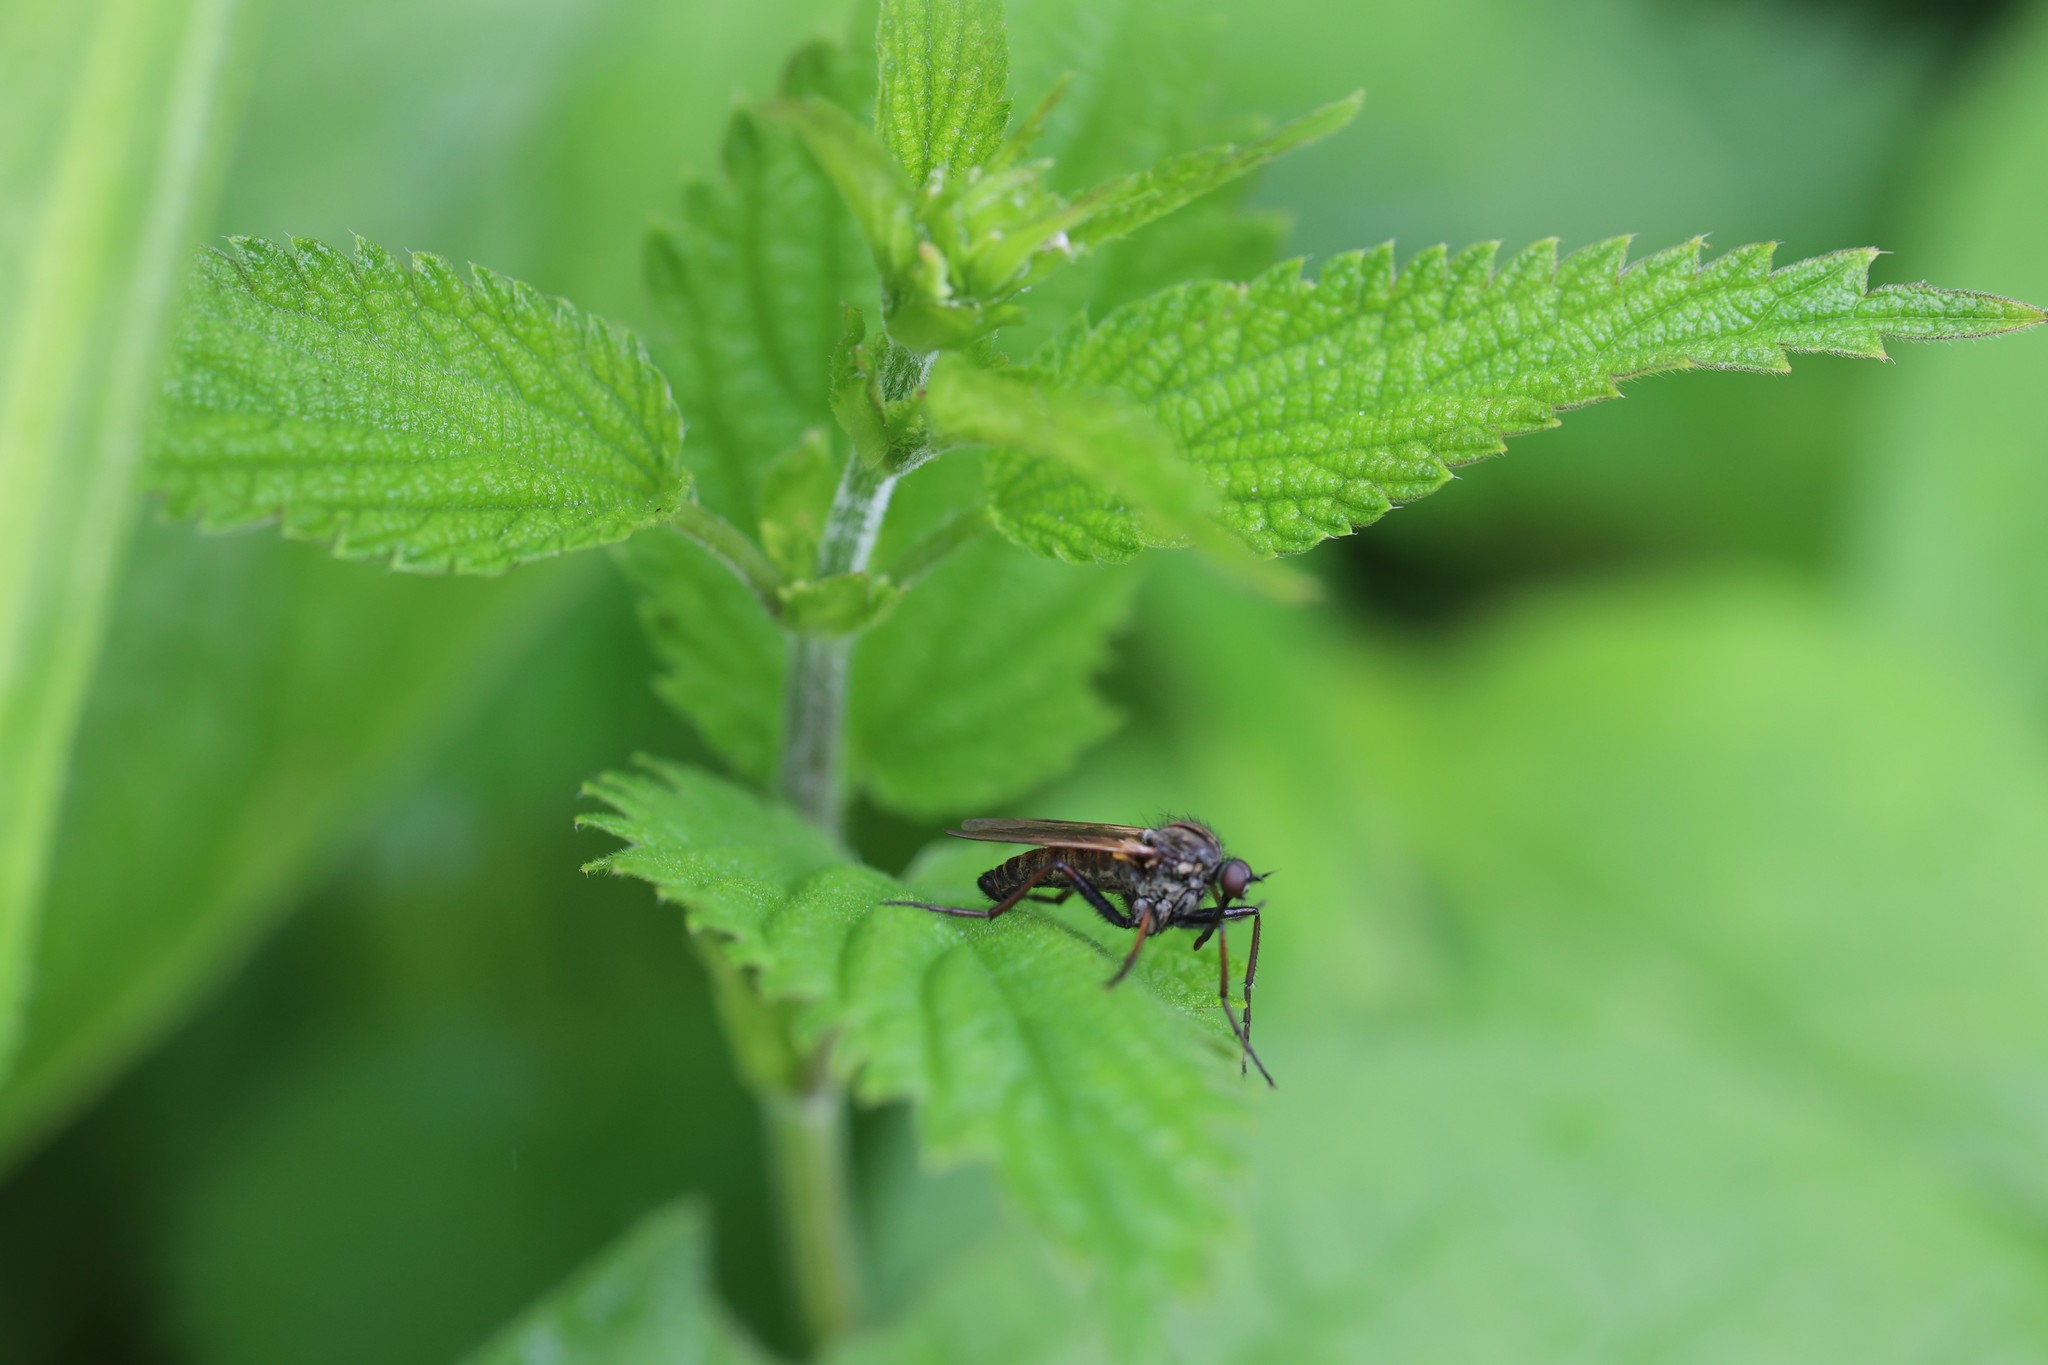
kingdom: Plantae
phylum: Tracheophyta
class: Magnoliopsida
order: Rosales
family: Urticaceae
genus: Urtica
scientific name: Urtica dioica
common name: Common nettle
